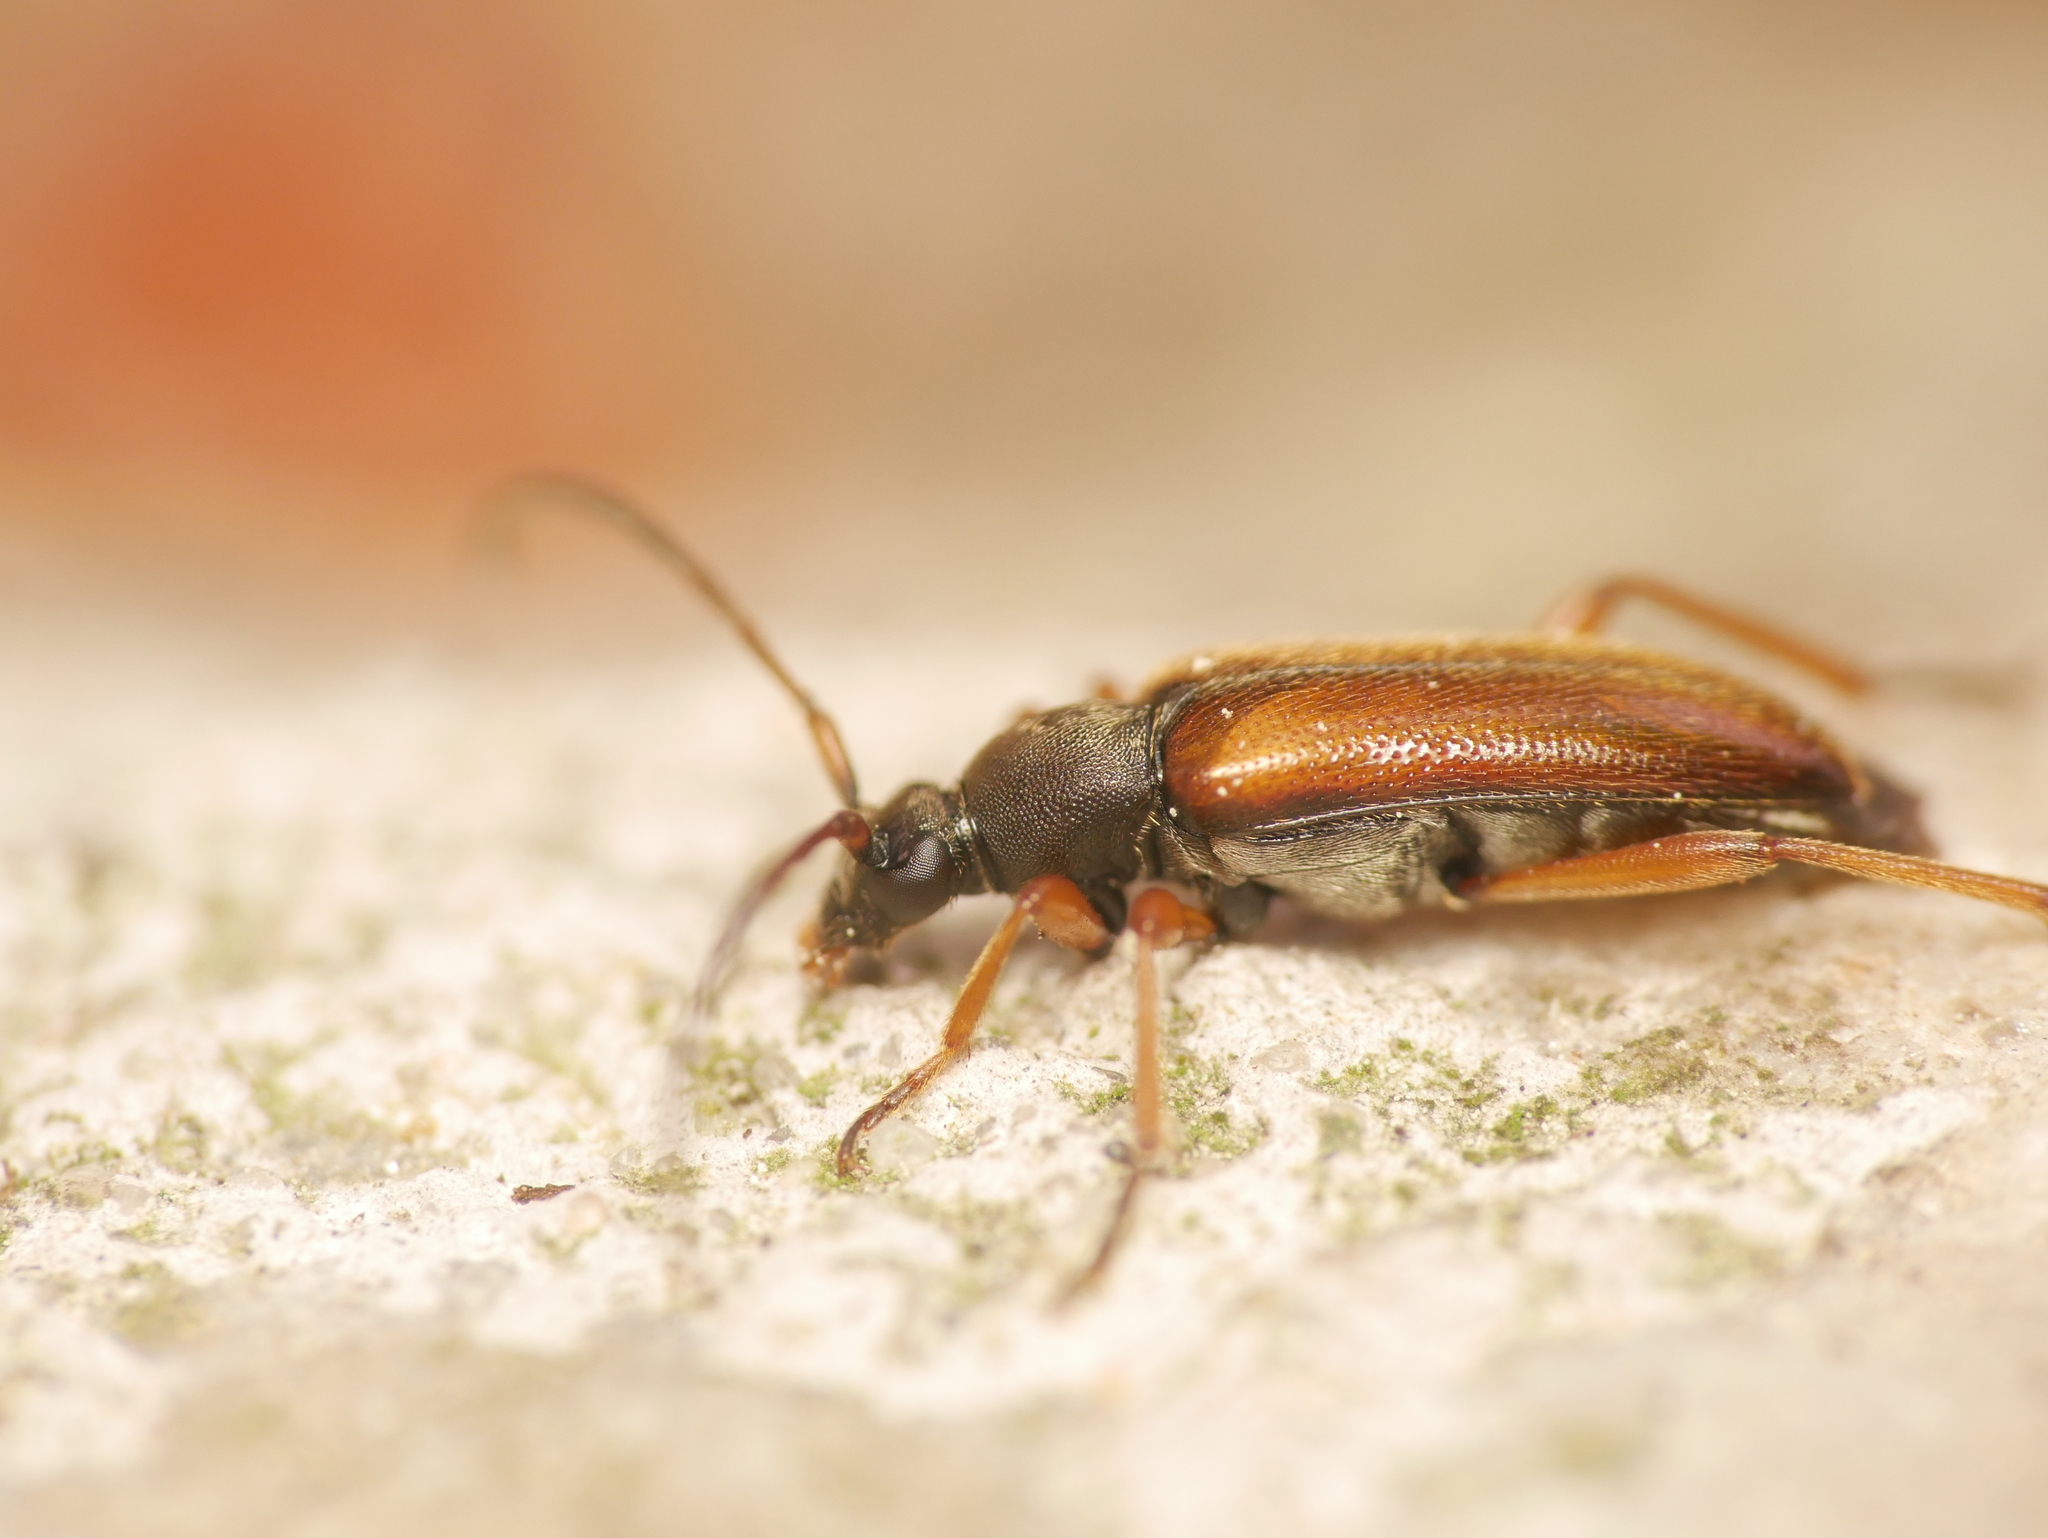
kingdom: Animalia
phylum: Arthropoda
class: Insecta
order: Coleoptera
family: Cerambycidae
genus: Alosterna
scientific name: Alosterna tabacicolor
